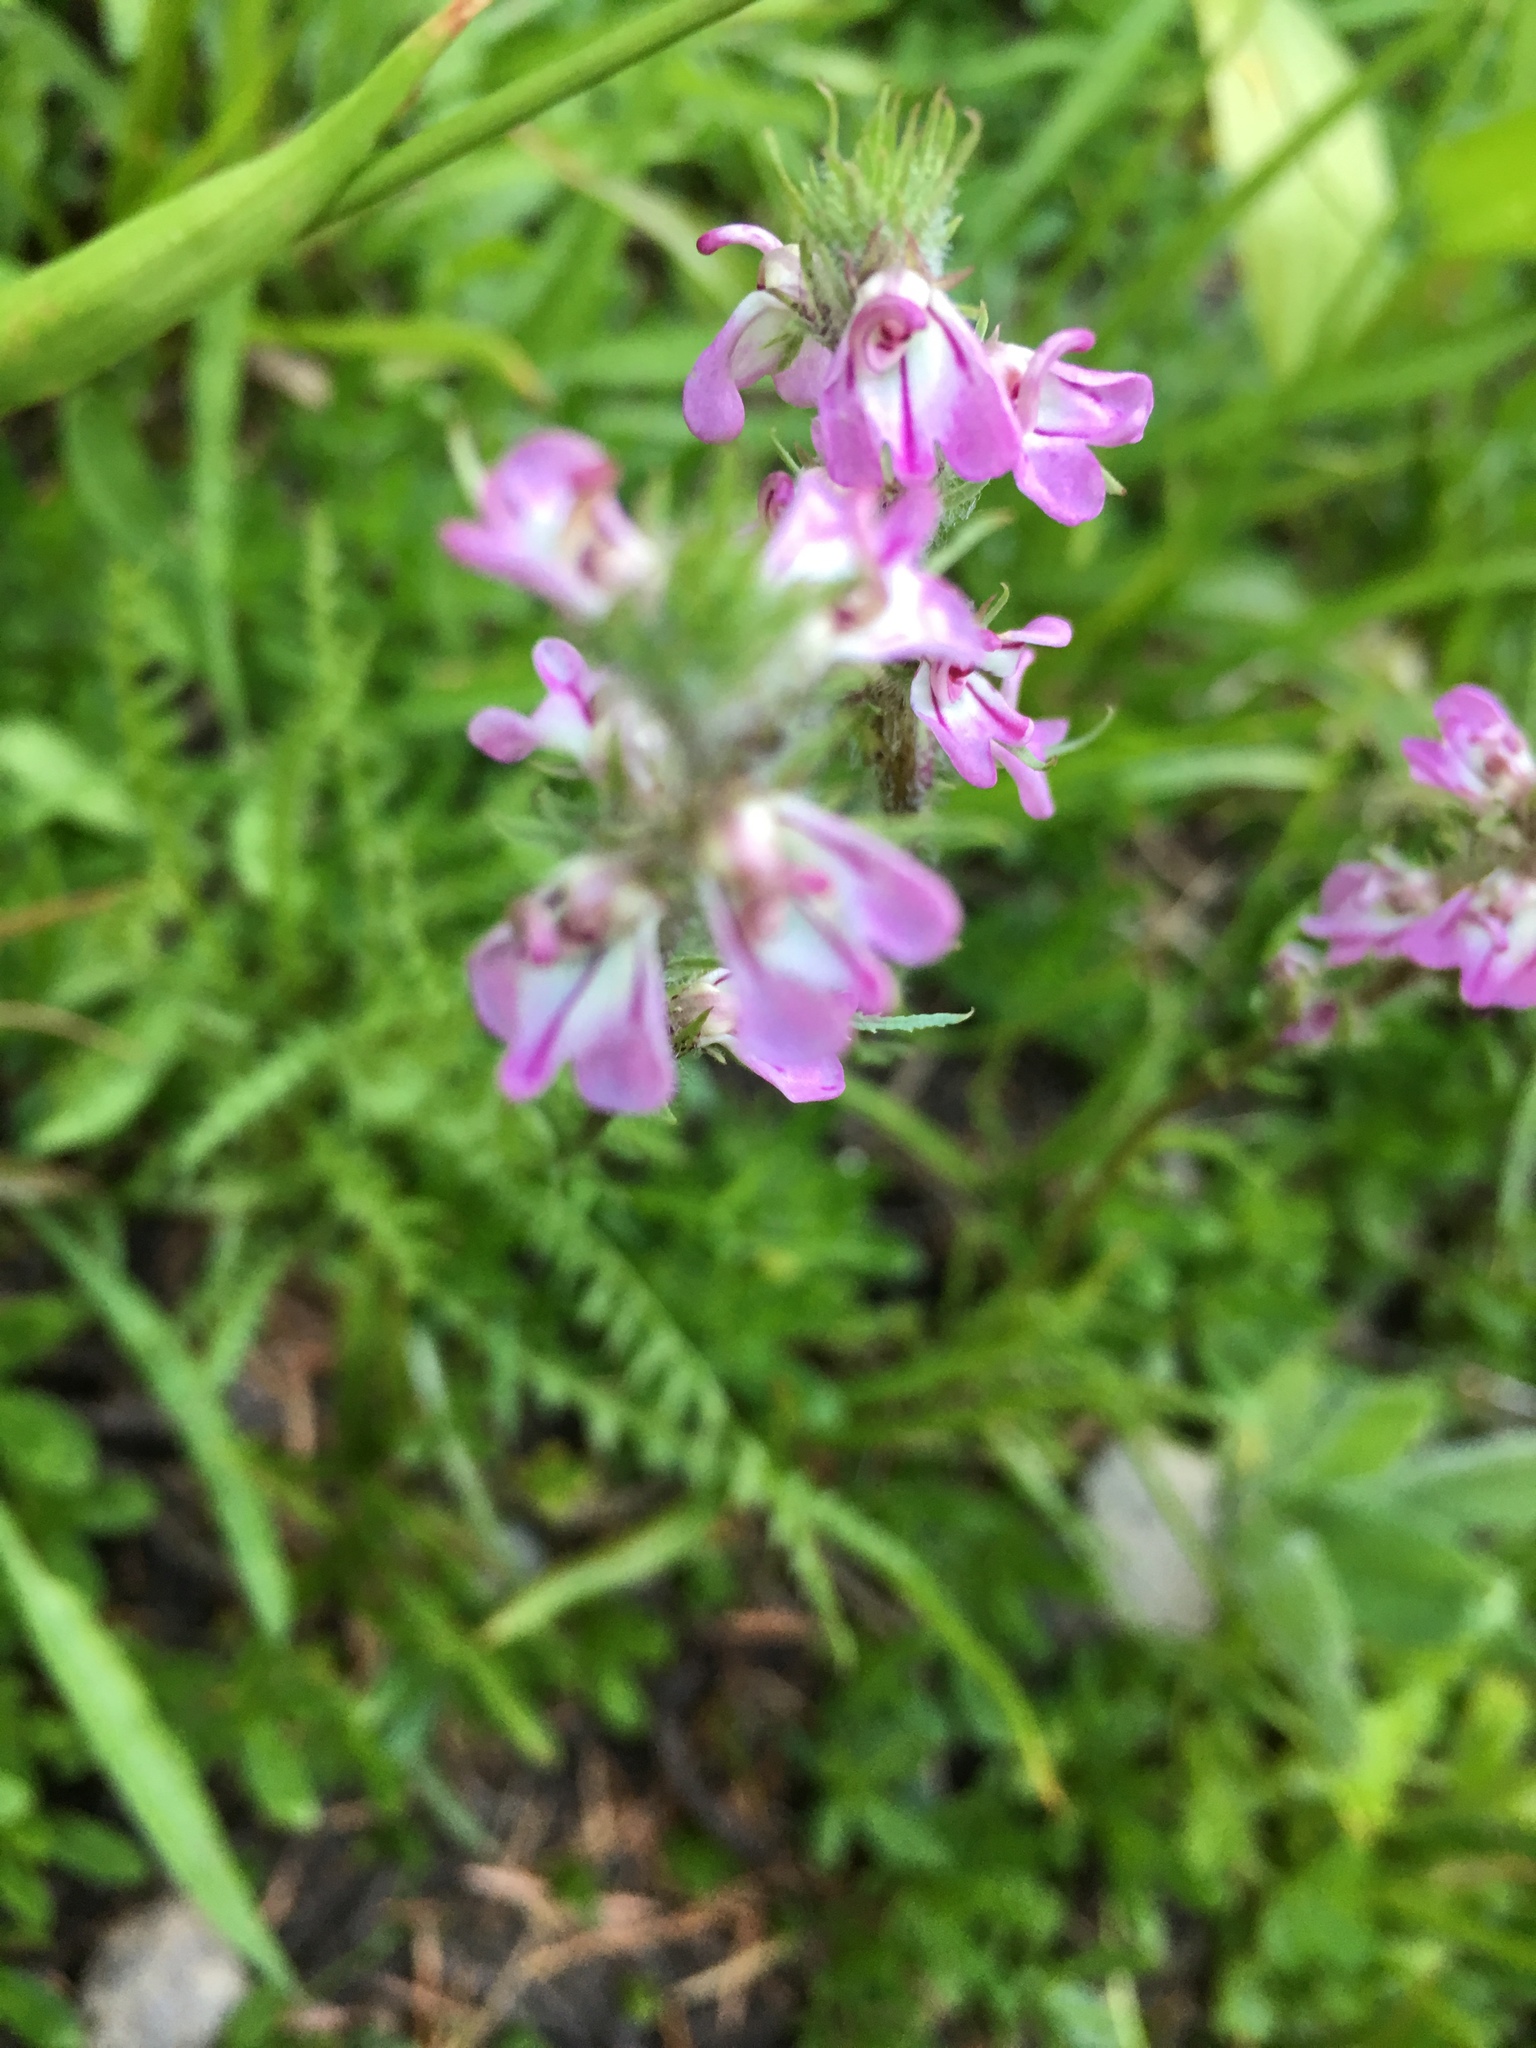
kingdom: Plantae
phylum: Tracheophyta
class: Magnoliopsida
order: Lamiales
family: Orobanchaceae
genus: Pedicularis
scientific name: Pedicularis attollens
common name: Slender pedicularis
